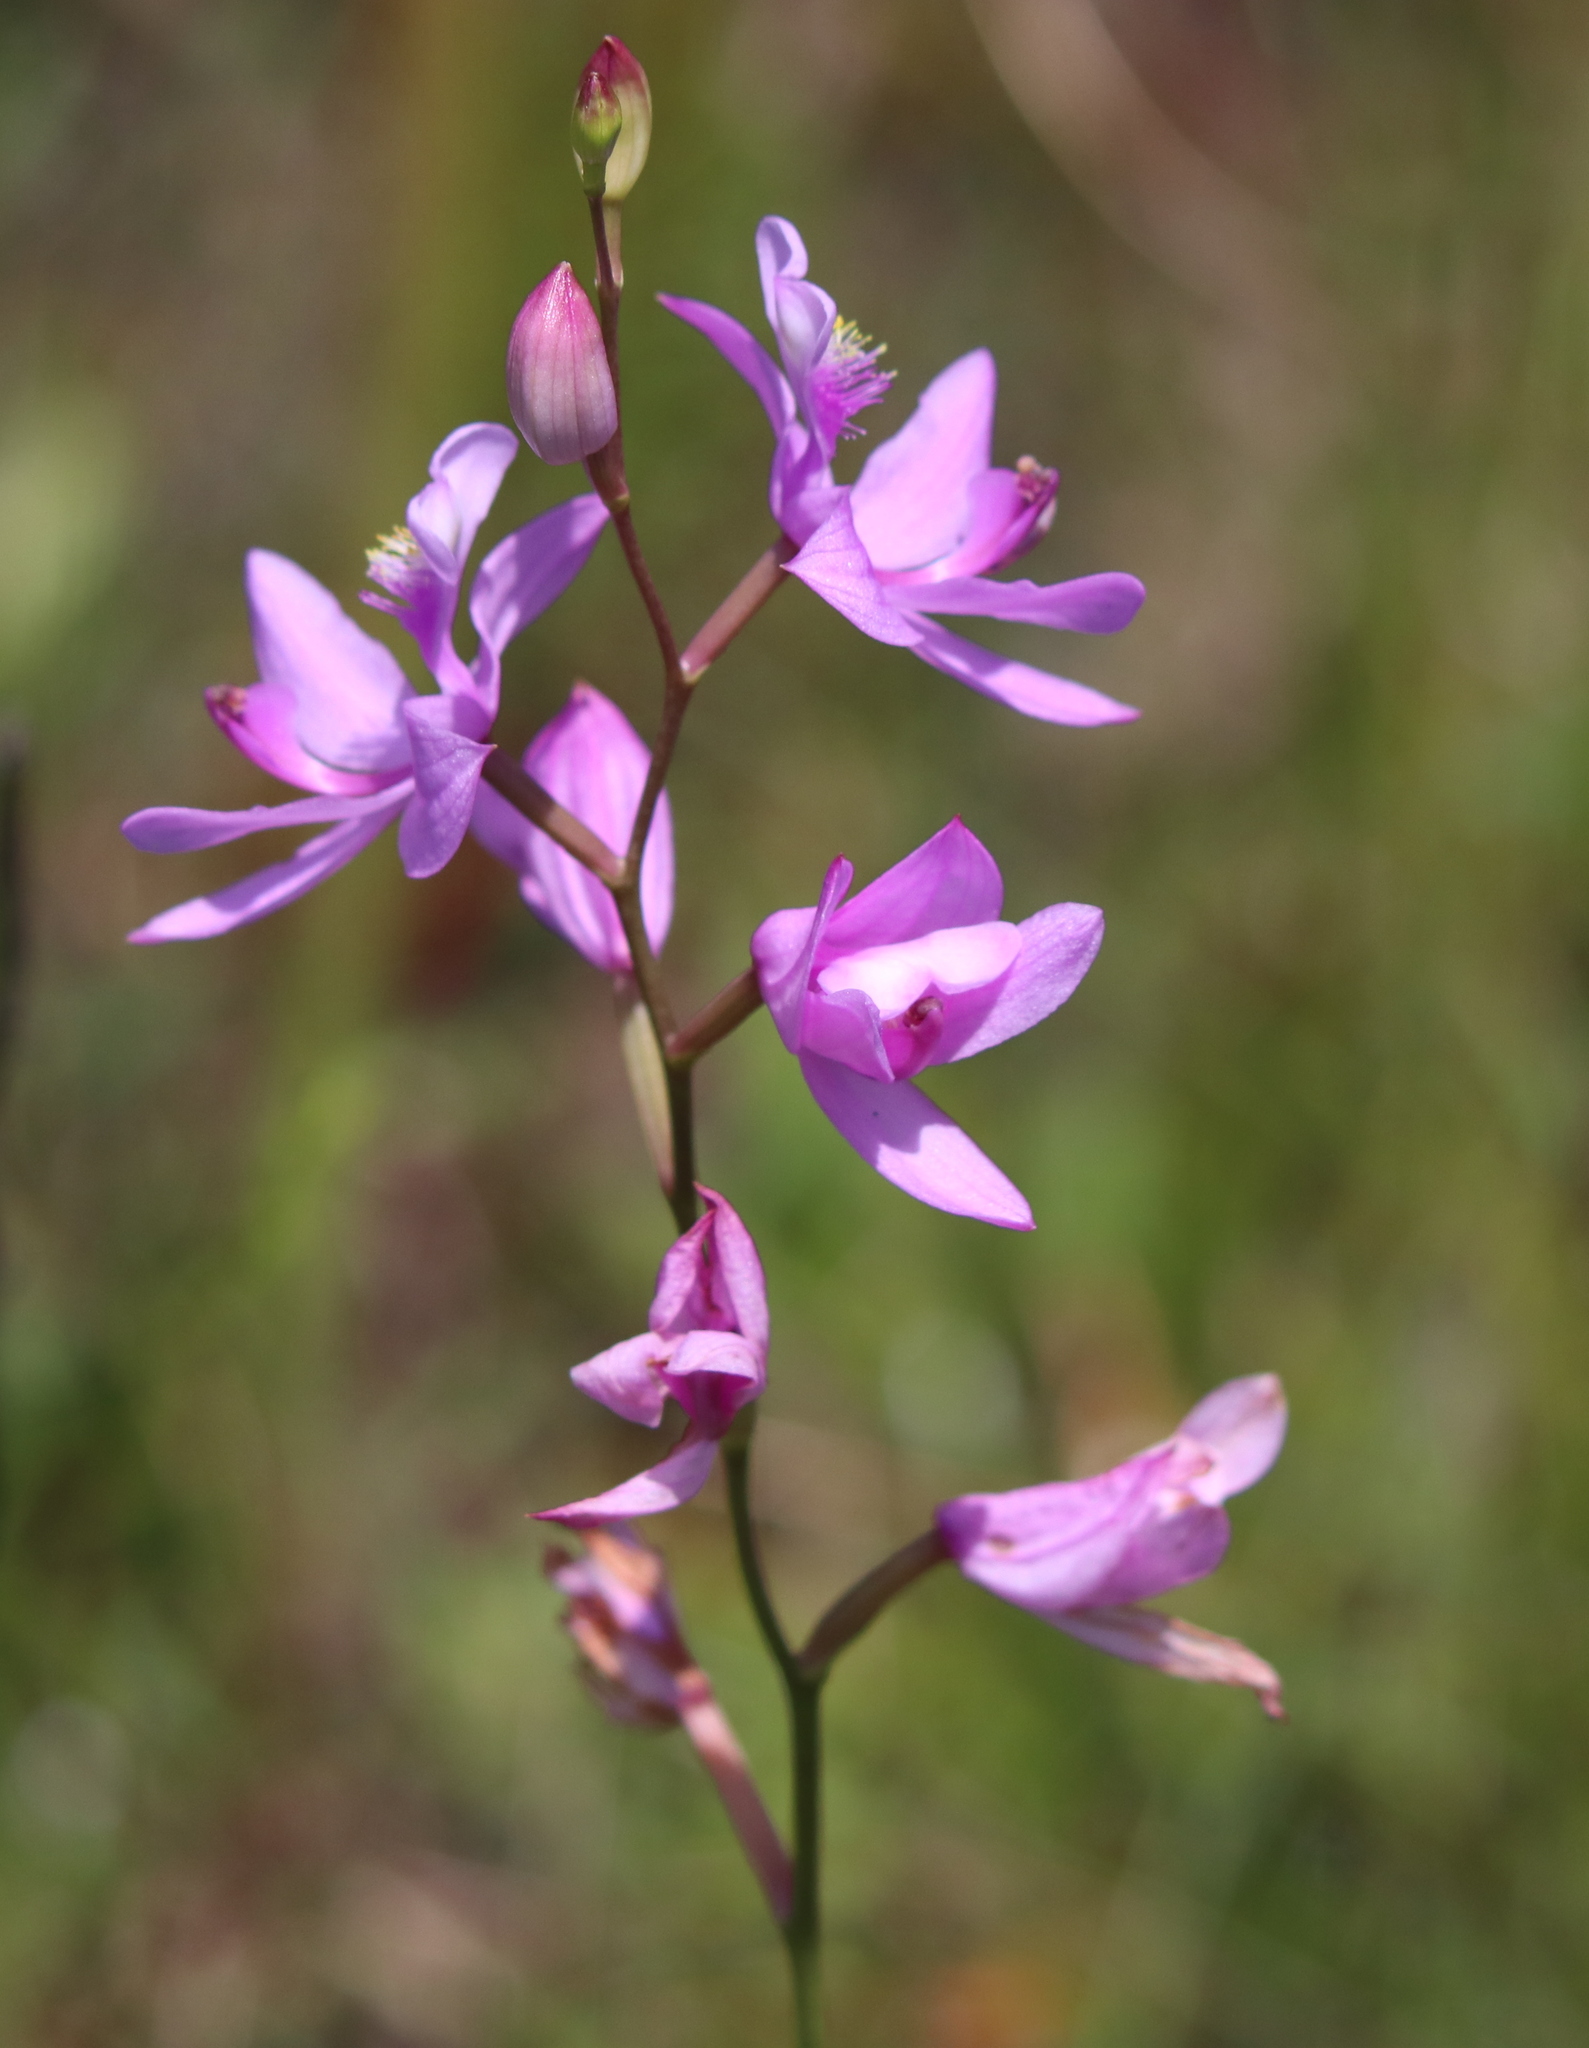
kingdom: Plantae
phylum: Tracheophyta
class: Liliopsida
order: Asparagales
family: Orchidaceae
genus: Calopogon
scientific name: Calopogon tuberosus
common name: Grass-pink
